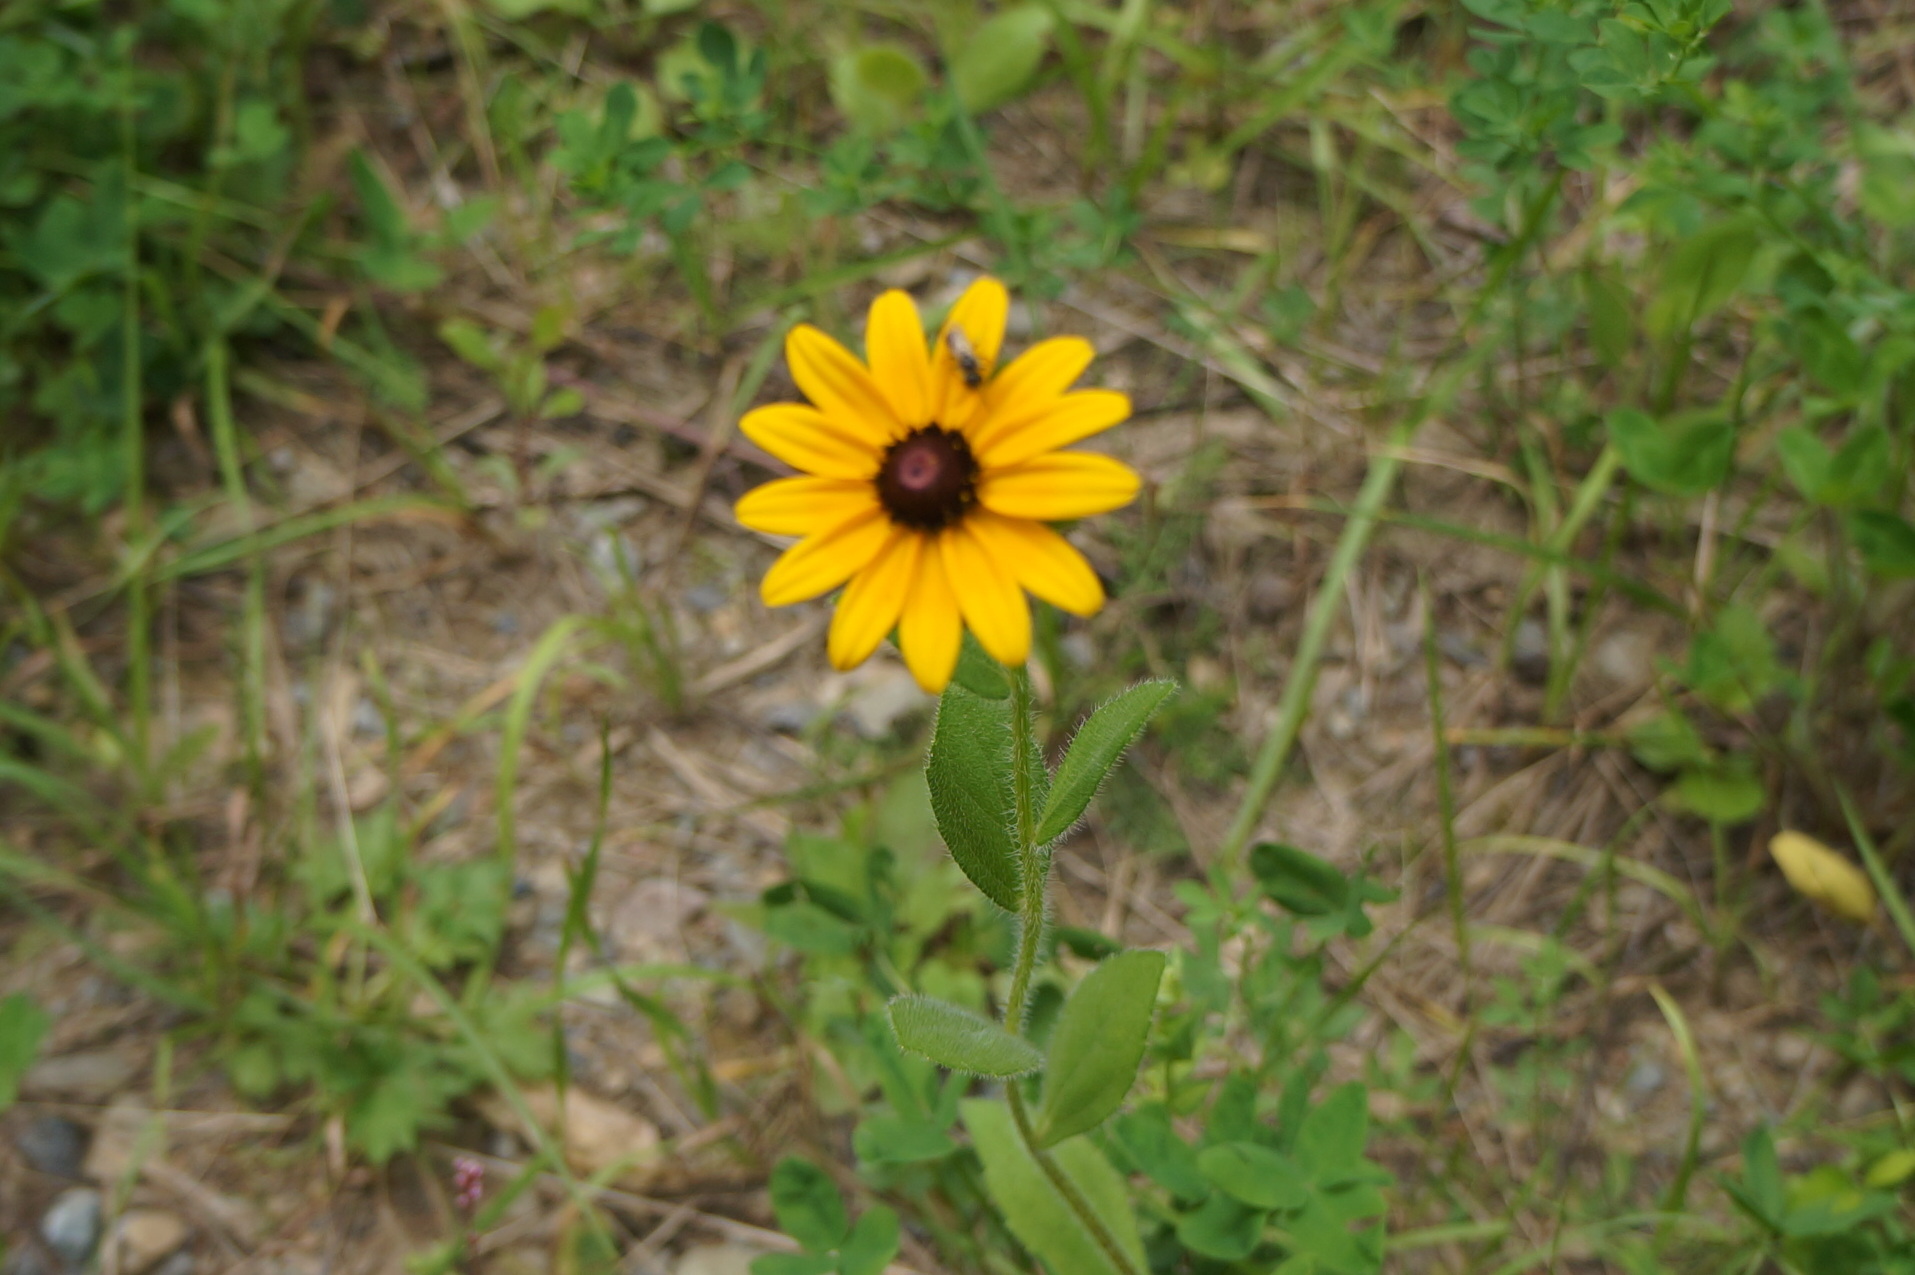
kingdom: Plantae
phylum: Tracheophyta
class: Magnoliopsida
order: Asterales
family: Asteraceae
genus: Rudbeckia
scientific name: Rudbeckia hirta
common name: Black-eyed-susan
